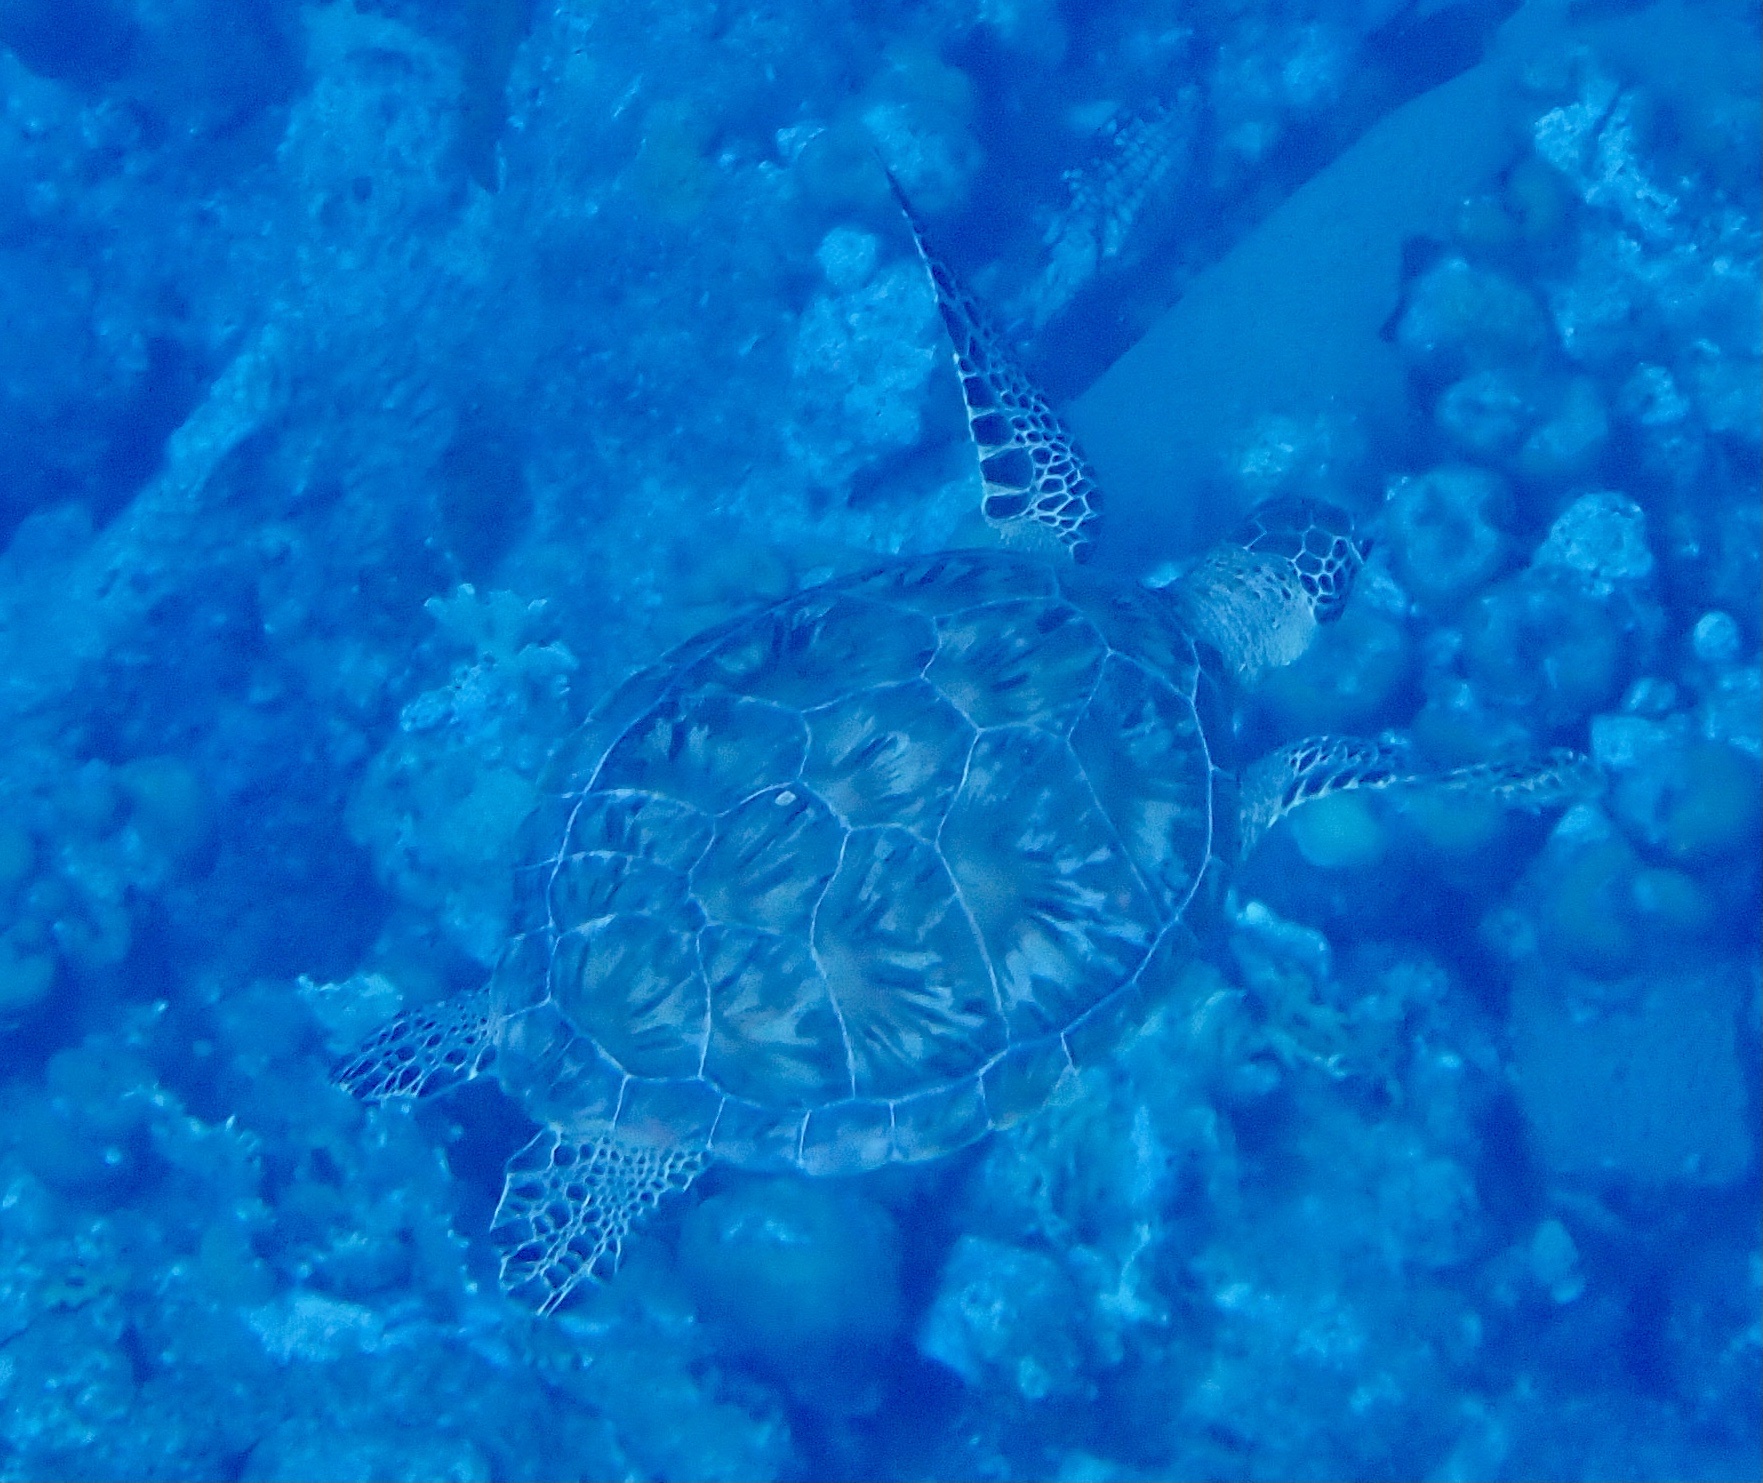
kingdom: Animalia
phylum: Chordata
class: Testudines
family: Cheloniidae
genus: Chelonia
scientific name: Chelonia mydas
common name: Green turtle
